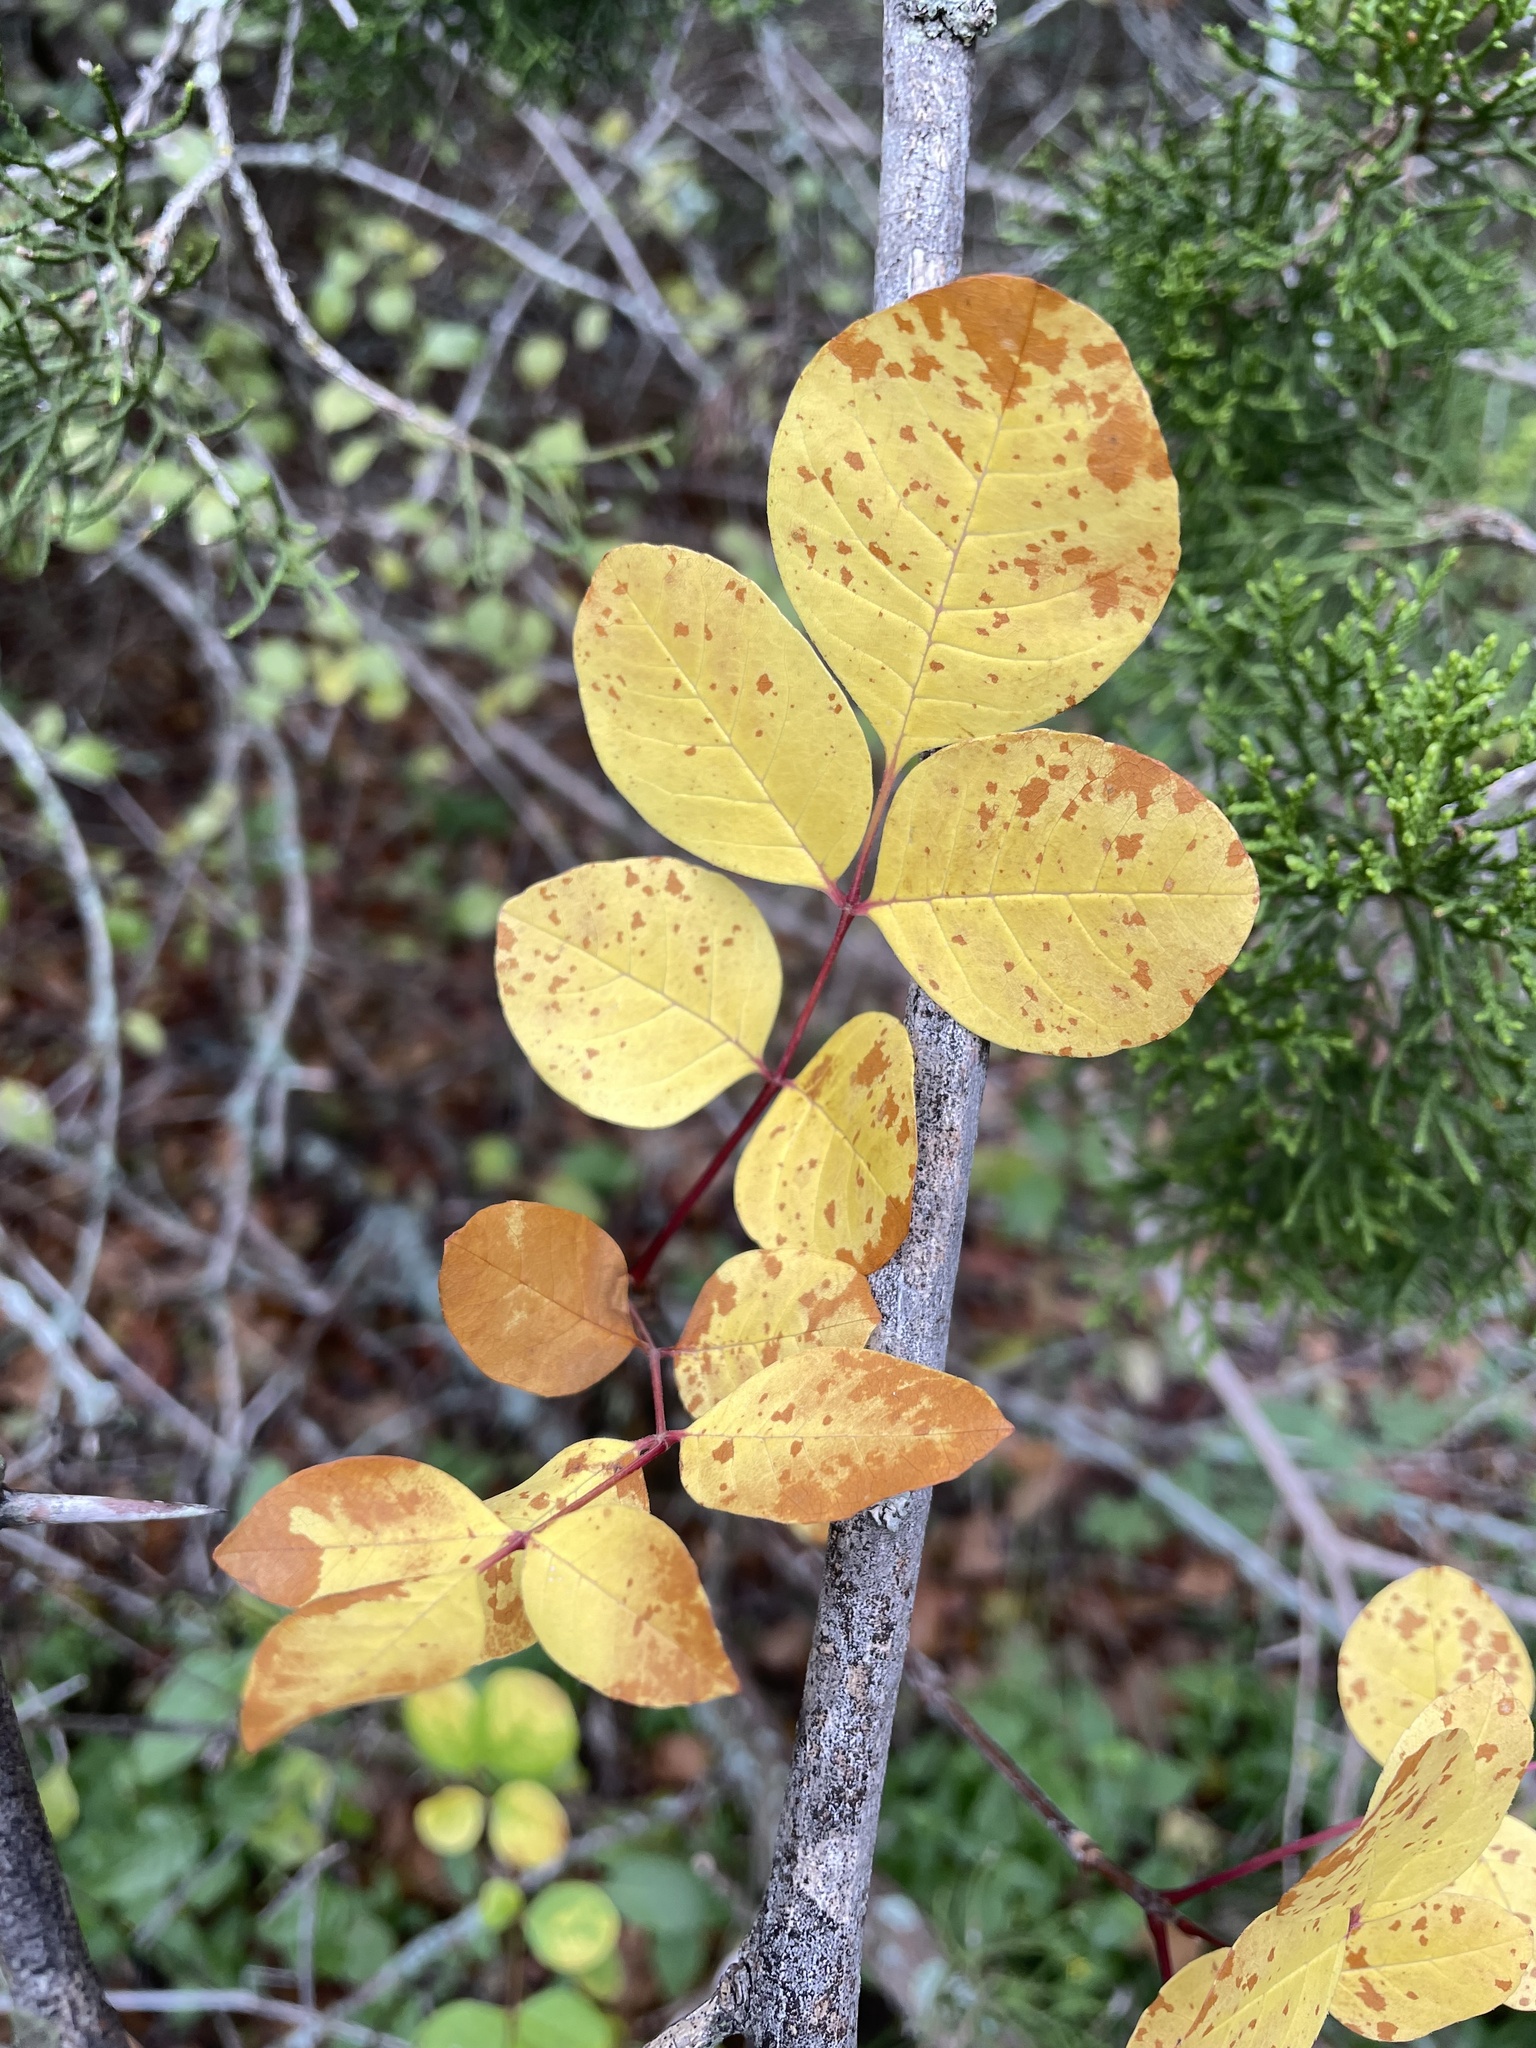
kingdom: Plantae
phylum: Tracheophyta
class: Magnoliopsida
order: Lamiales
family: Oleaceae
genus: Fraxinus
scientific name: Fraxinus albicans
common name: Texas ash
